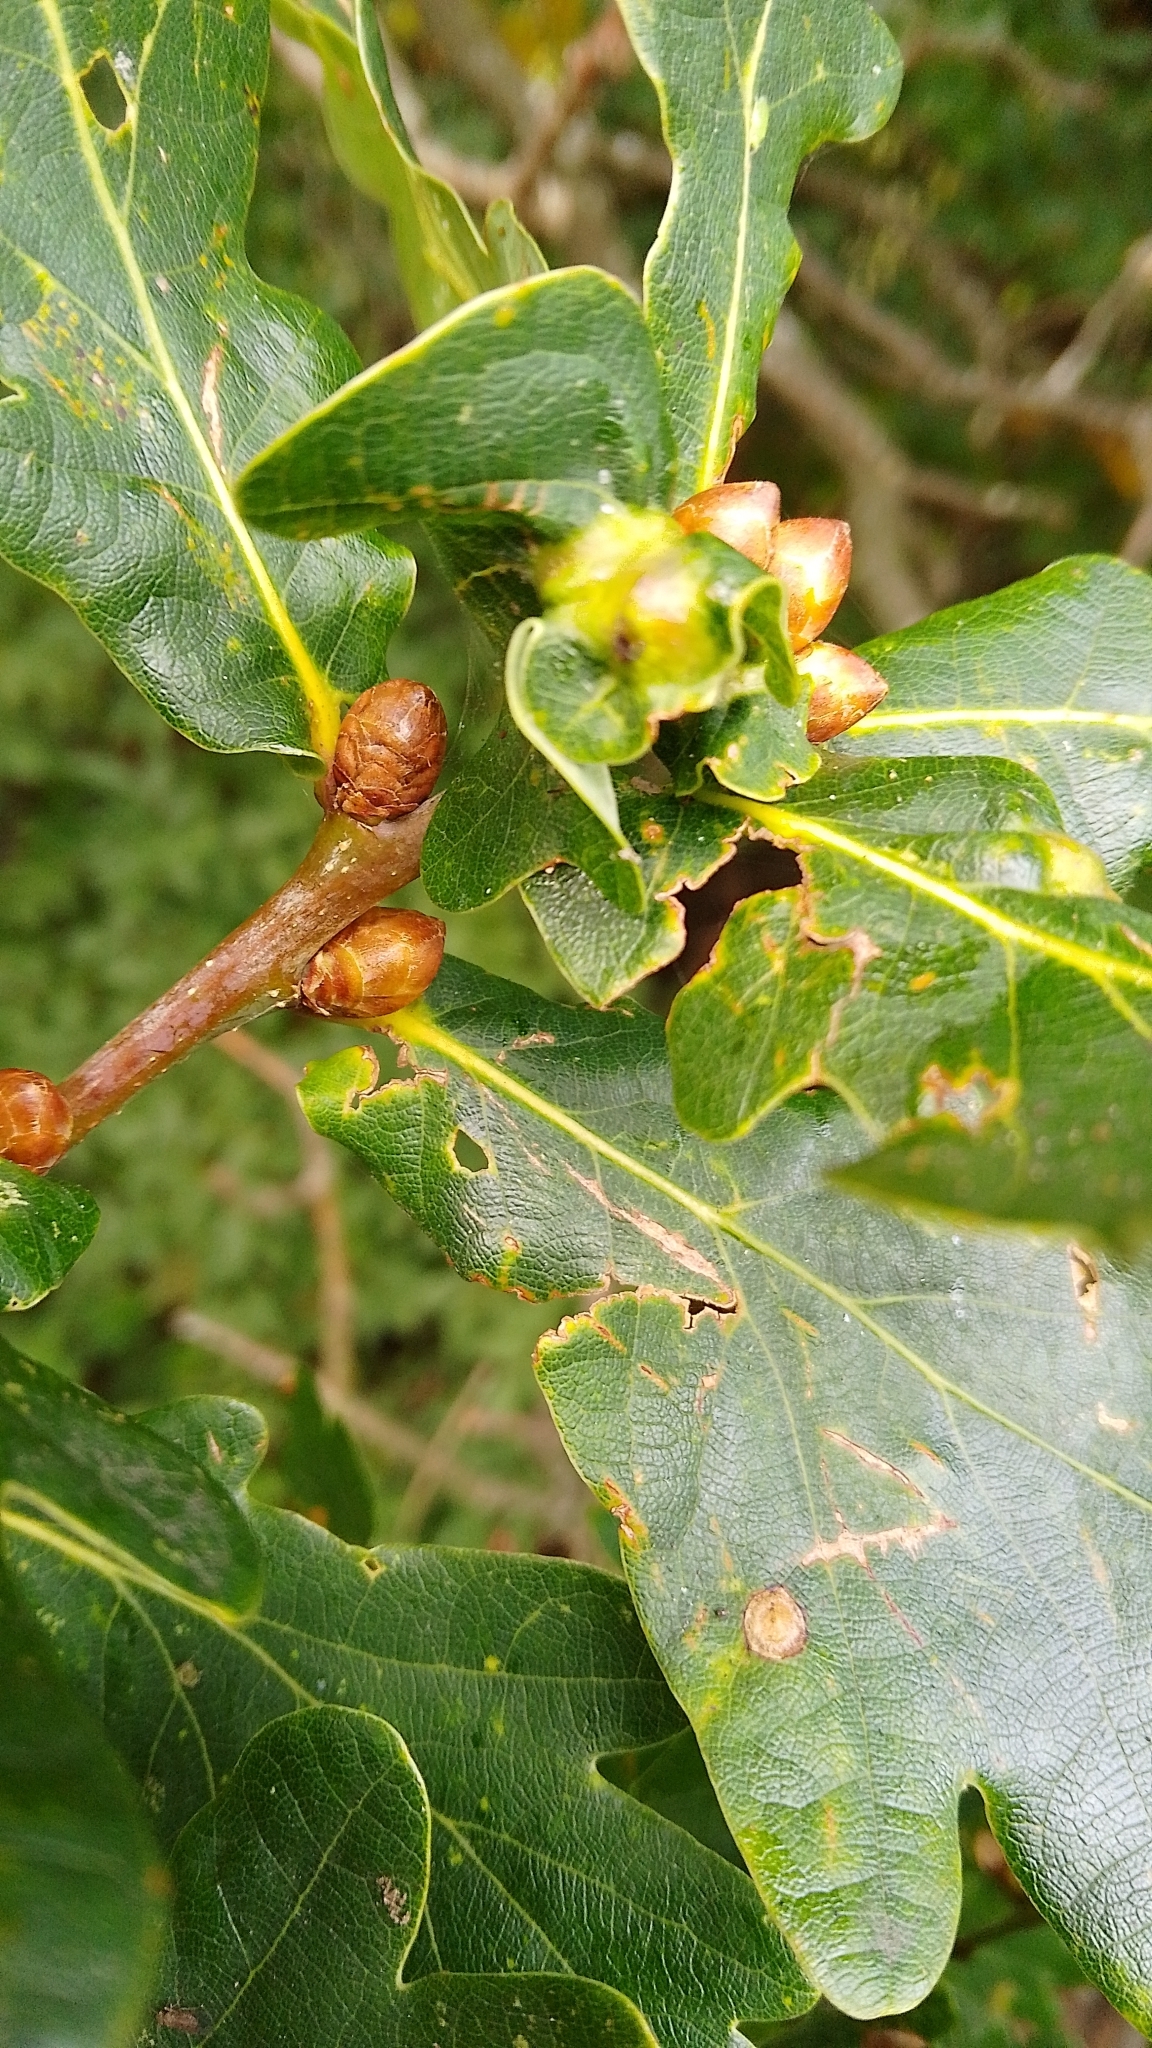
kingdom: Animalia
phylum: Arthropoda
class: Insecta
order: Hymenoptera
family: Cynipidae
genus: Andricus
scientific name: Andricus curvator
